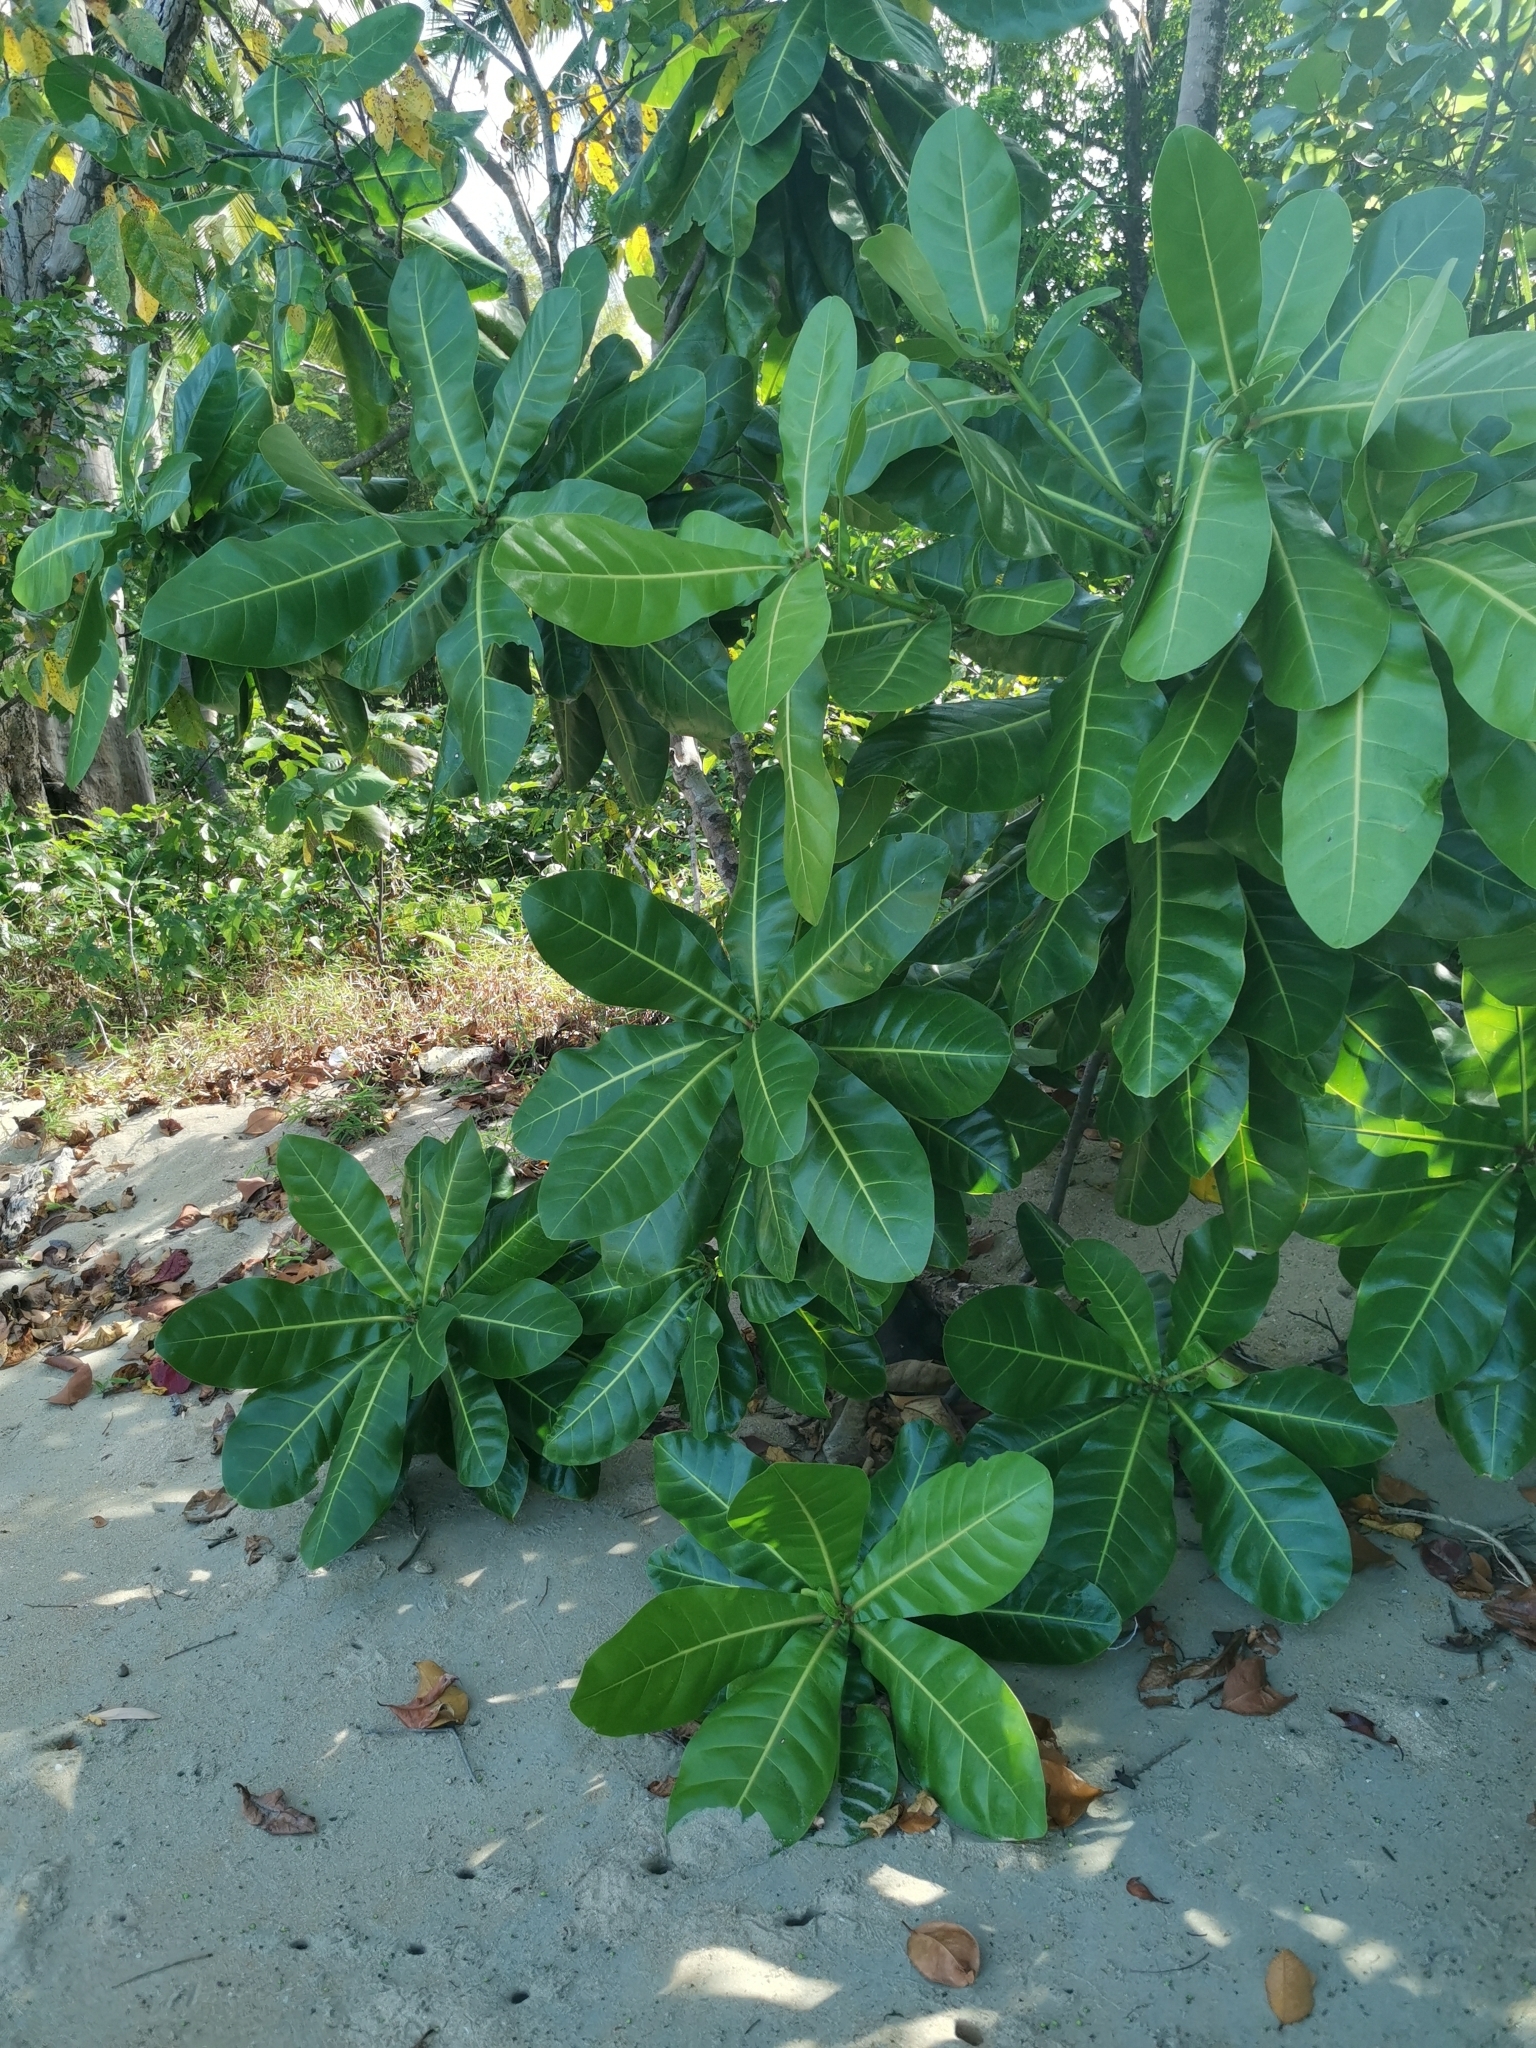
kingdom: Plantae
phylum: Tracheophyta
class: Magnoliopsida
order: Ericales
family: Lecythidaceae
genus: Barringtonia
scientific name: Barringtonia asiatica
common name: Mango-pine
